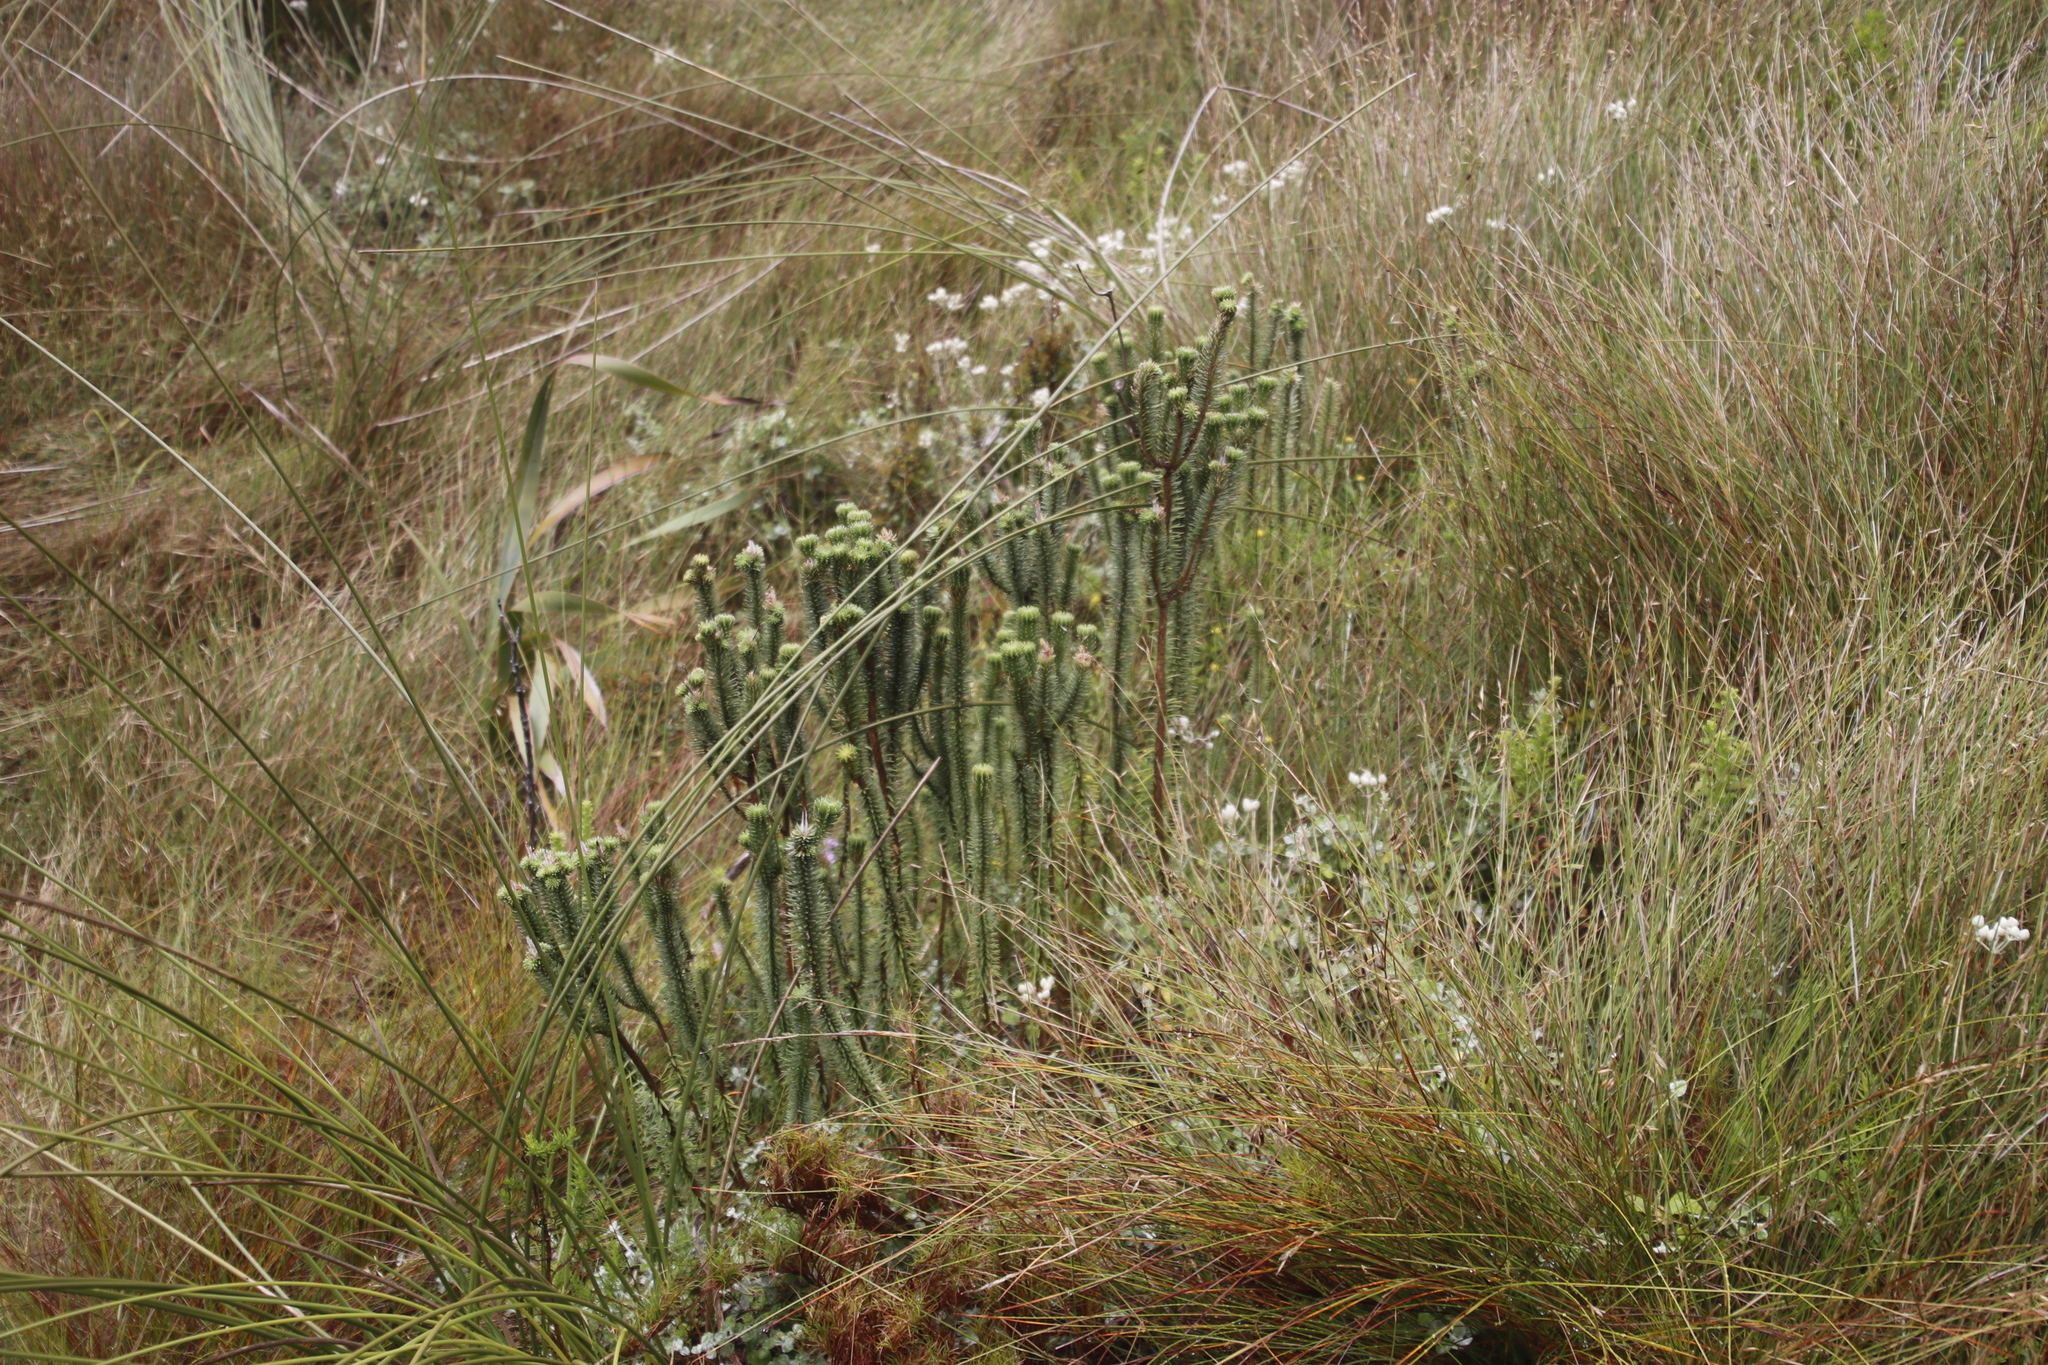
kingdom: Plantae
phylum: Tracheophyta
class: Magnoliopsida
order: Lamiales
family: Stilbaceae
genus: Stilbe
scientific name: Stilbe vestita
